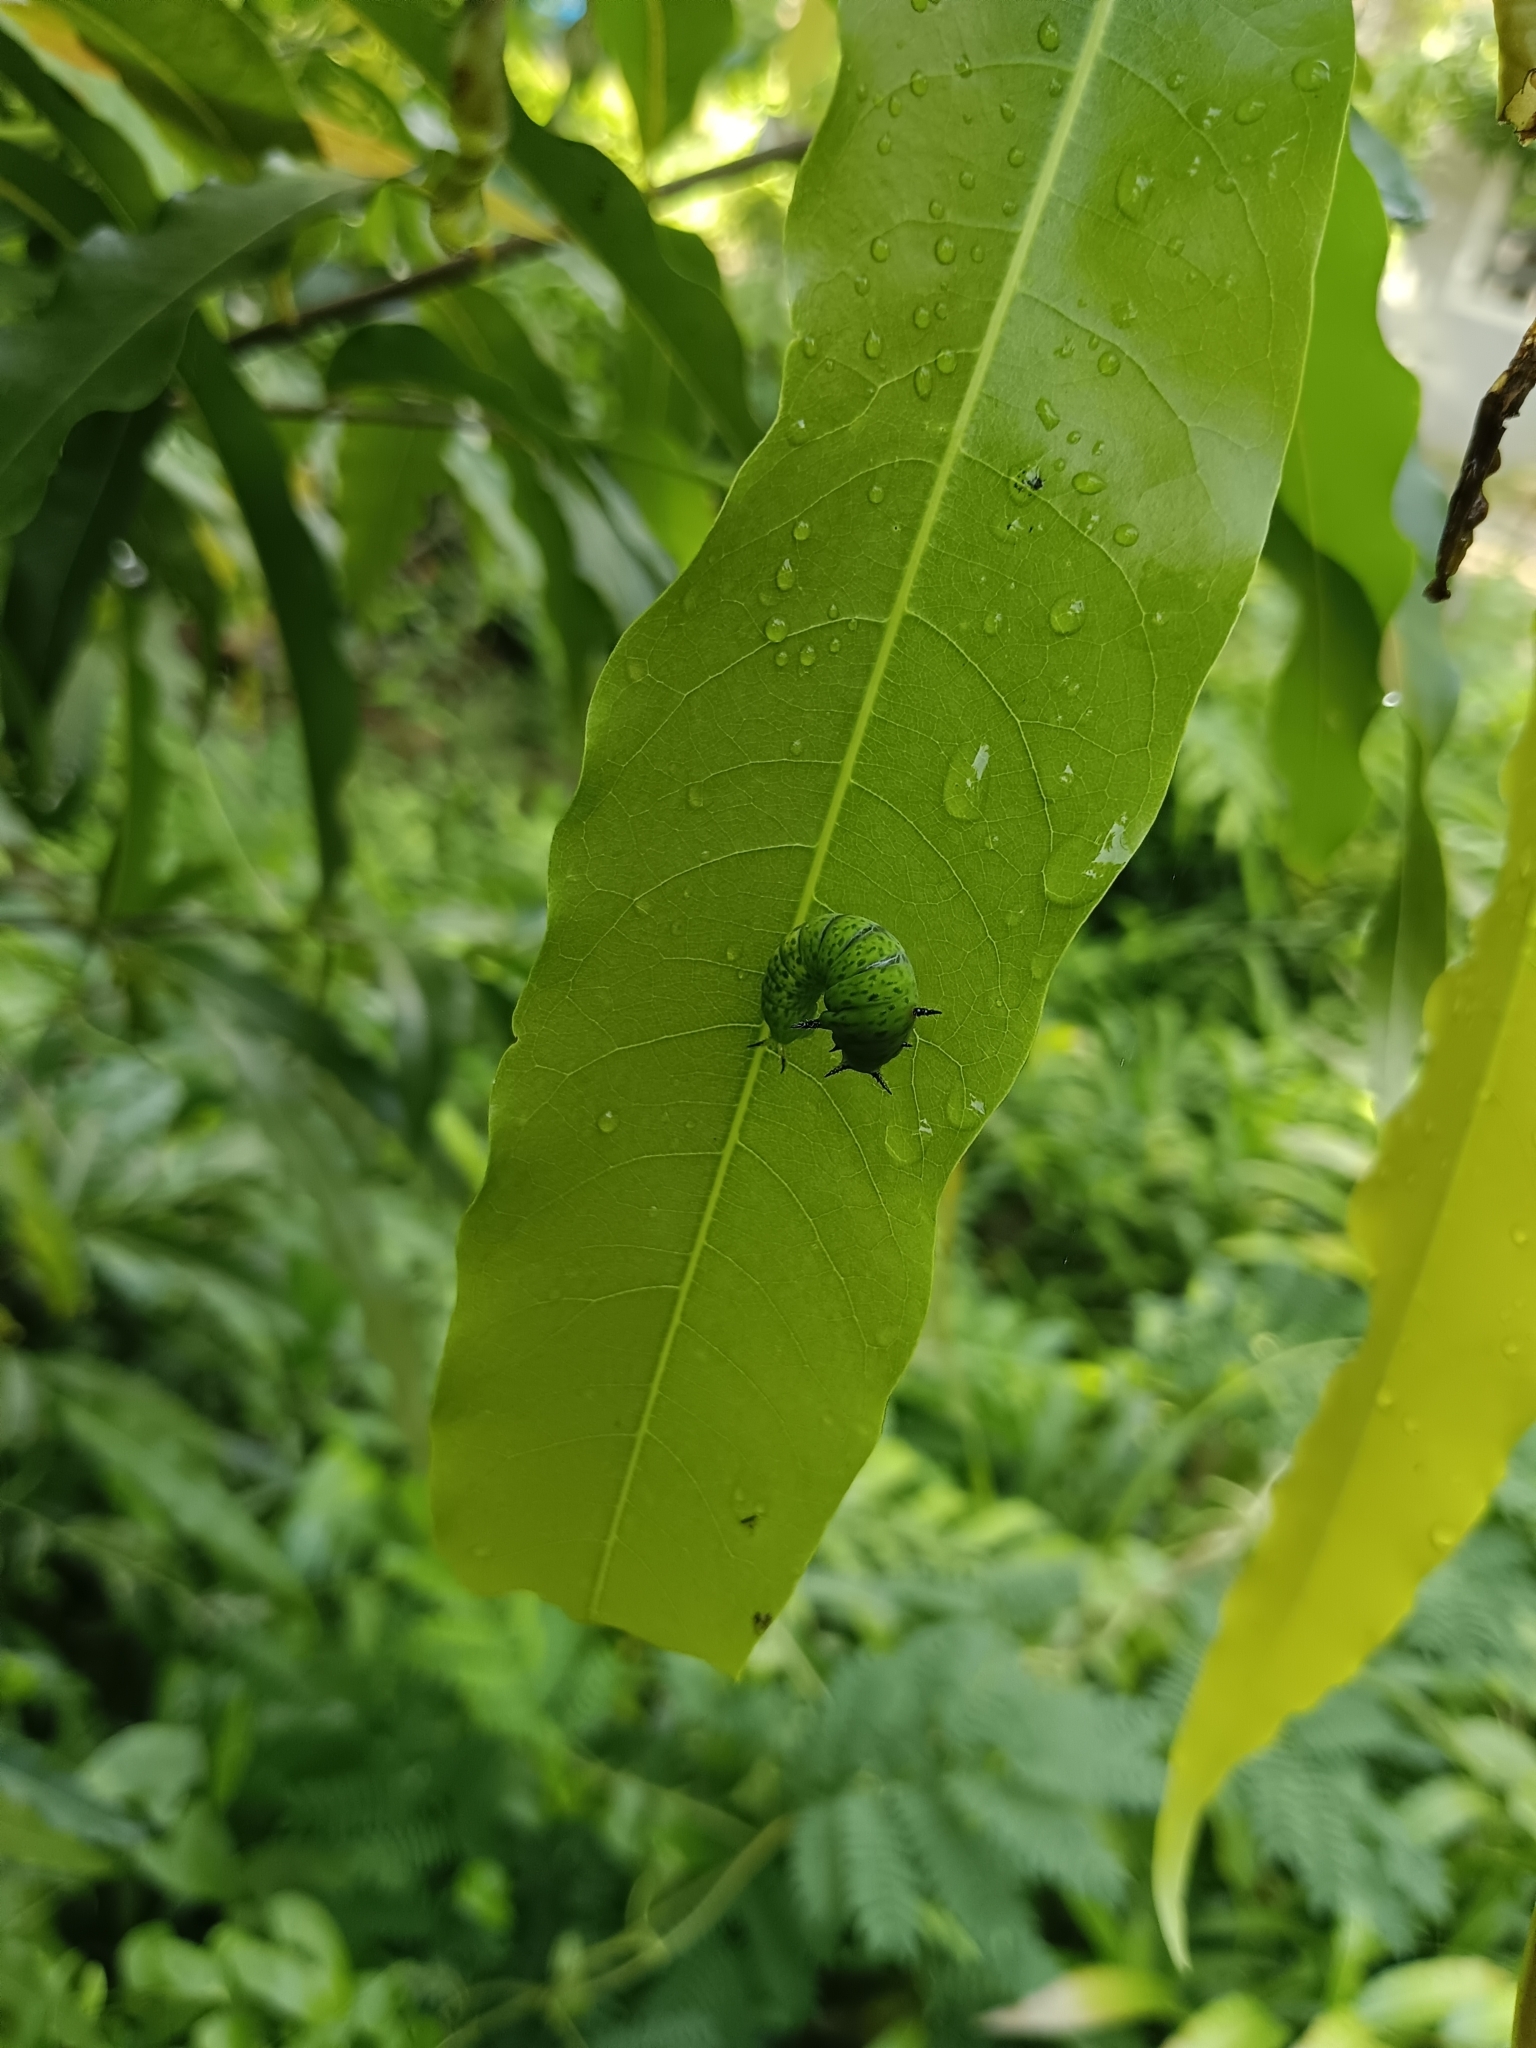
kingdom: Animalia
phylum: Arthropoda
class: Insecta
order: Lepidoptera
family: Papilionidae
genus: Graphium
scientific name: Graphium agamemnon
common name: Tailed jay
